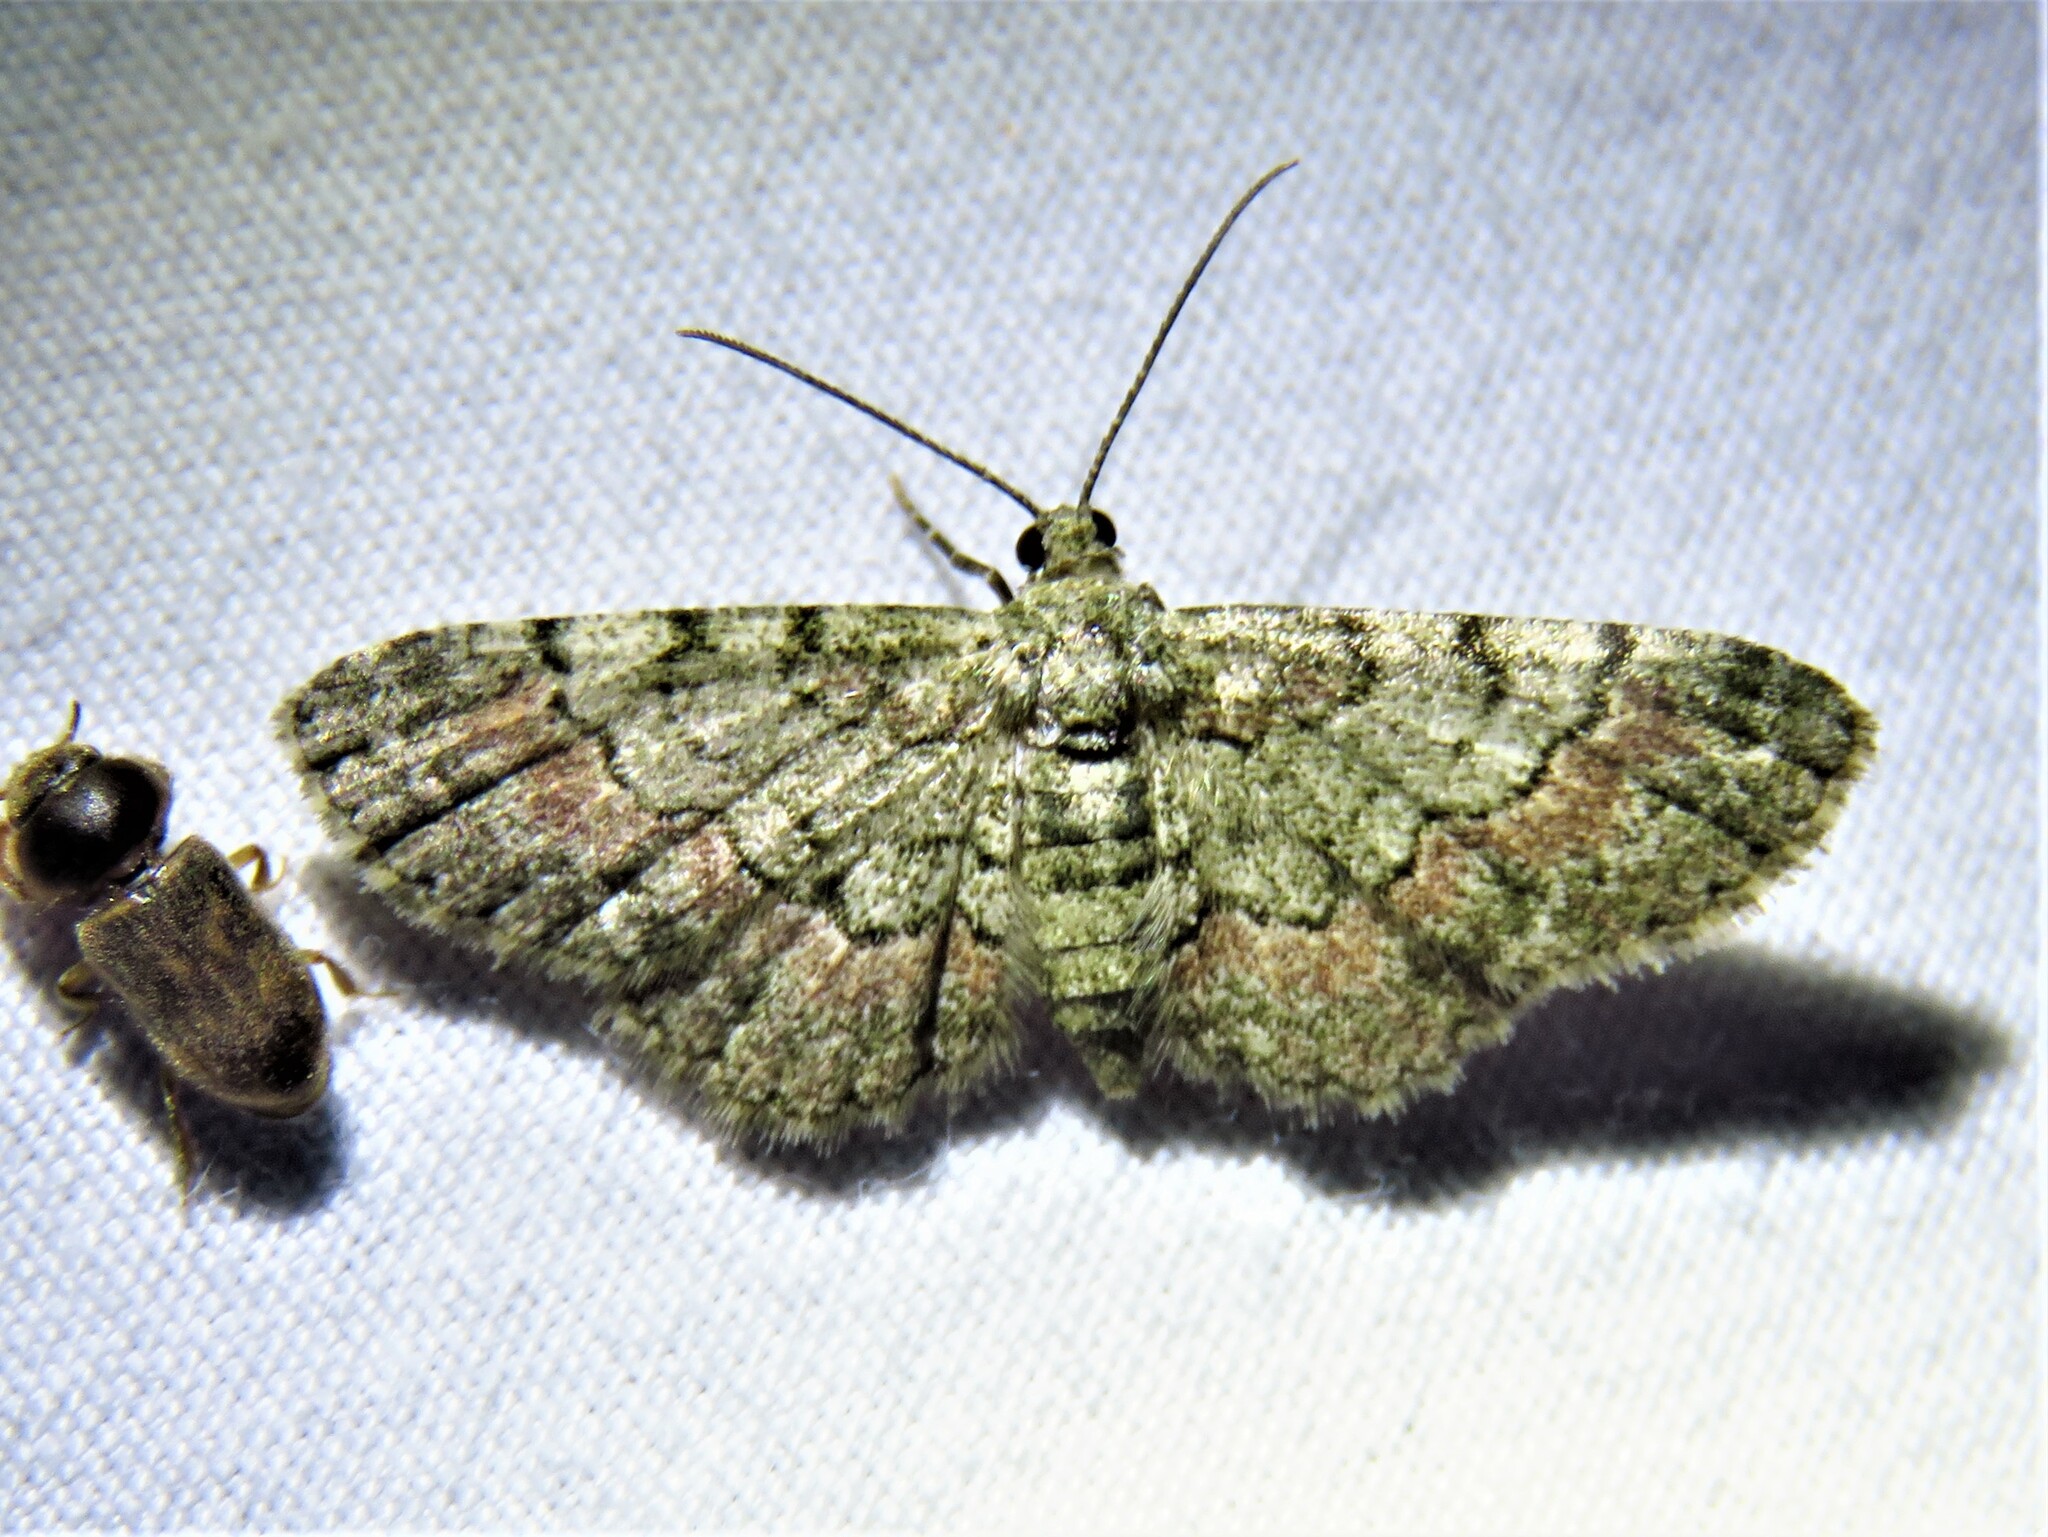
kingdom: Animalia
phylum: Arthropoda
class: Insecta
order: Lepidoptera
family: Geometridae
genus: Glenoides
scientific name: Glenoides texanaria
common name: Texas gray
